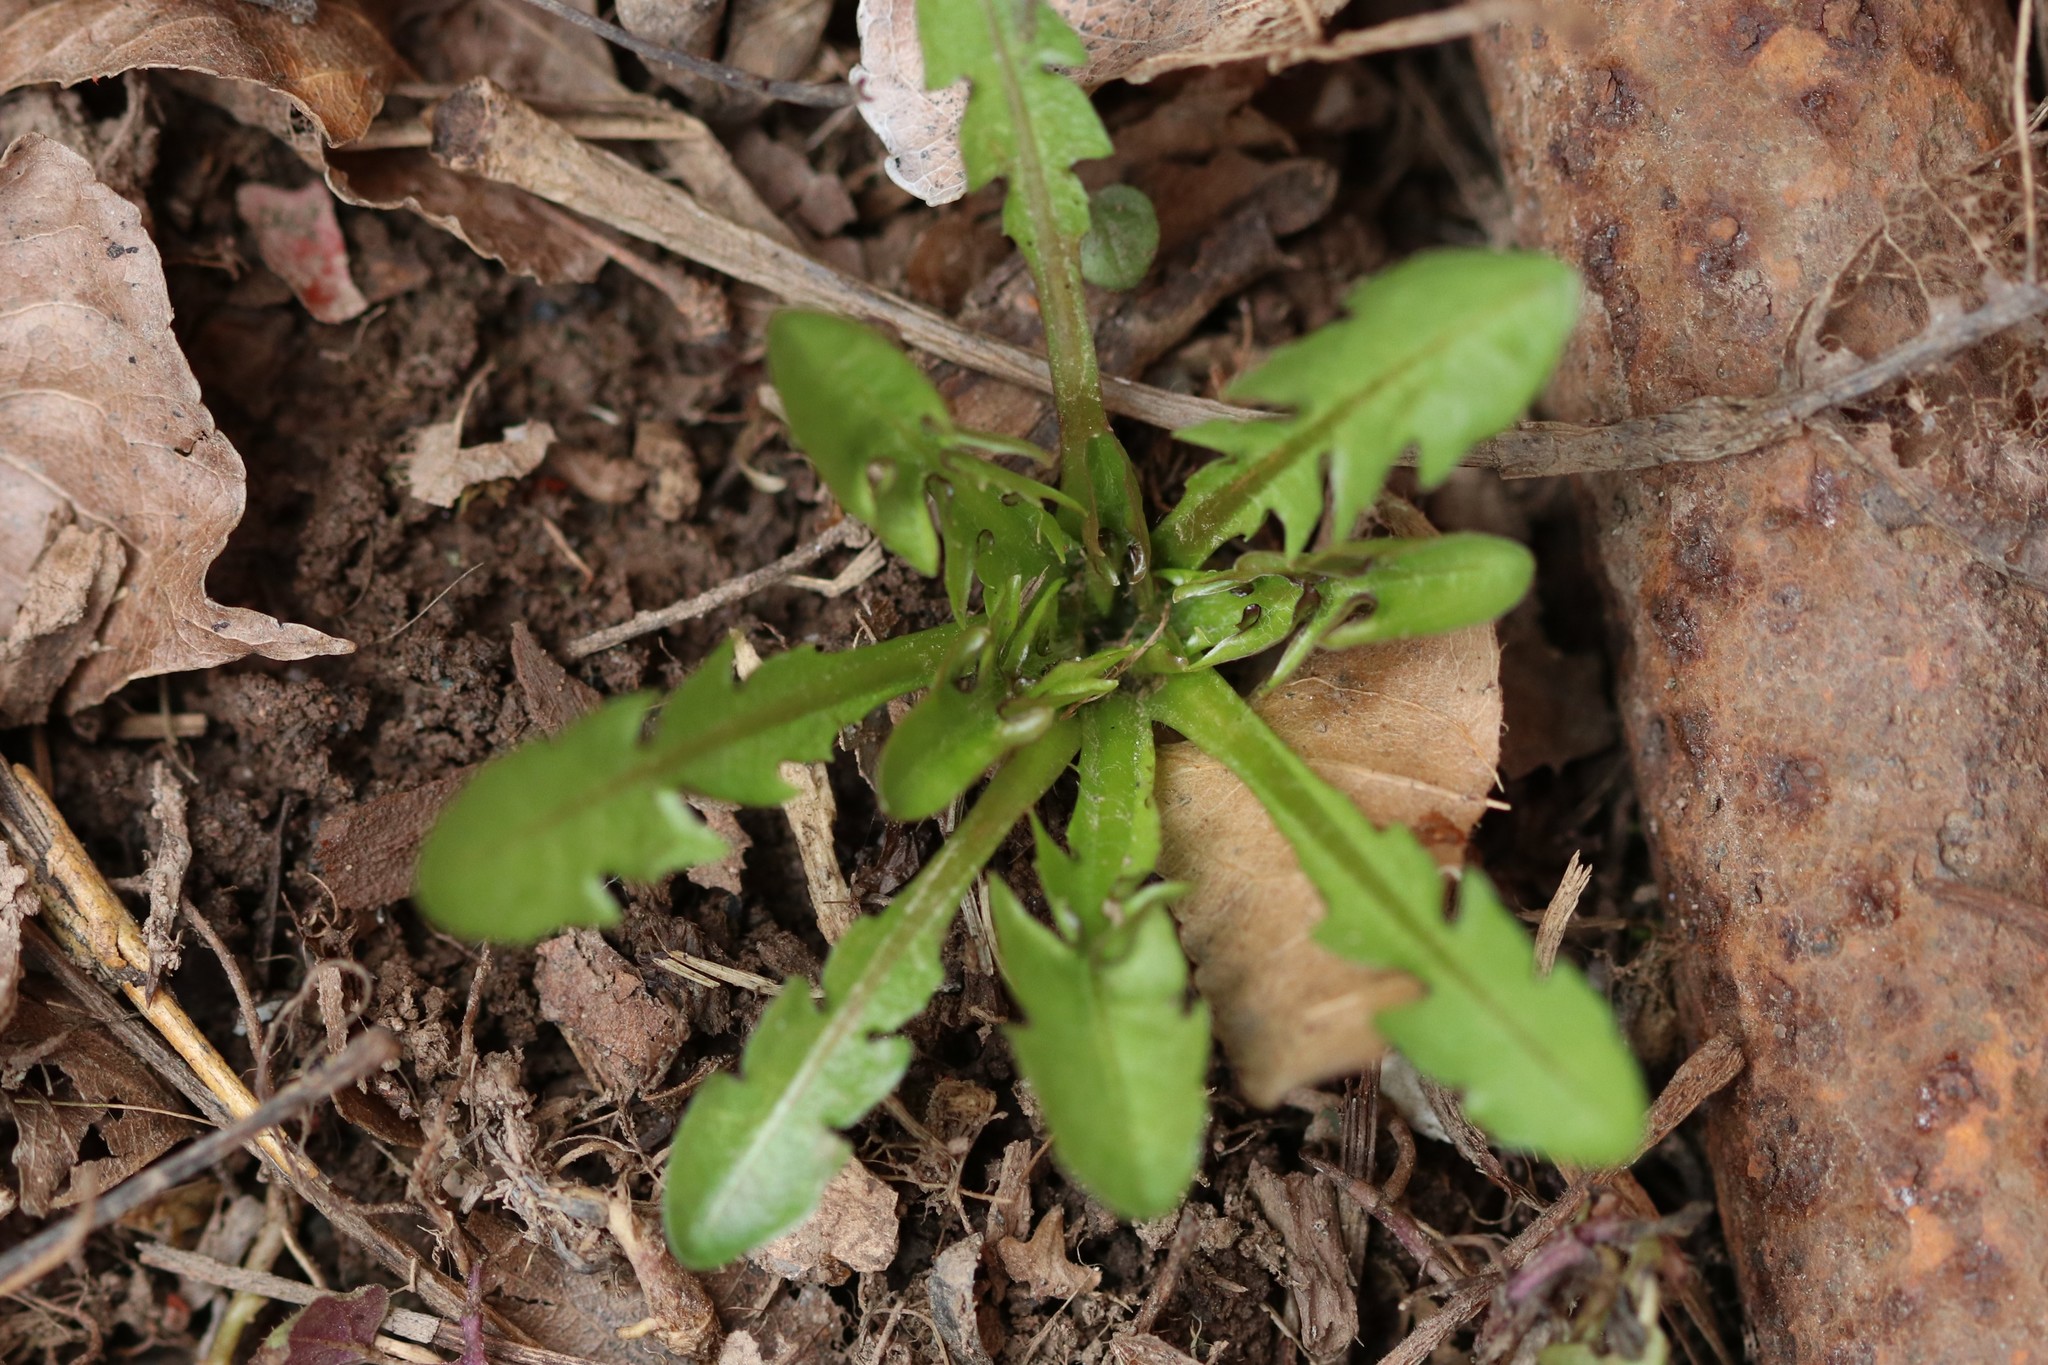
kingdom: Plantae
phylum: Tracheophyta
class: Magnoliopsida
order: Asterales
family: Asteraceae
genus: Taraxacum
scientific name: Taraxacum officinale
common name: Common dandelion
